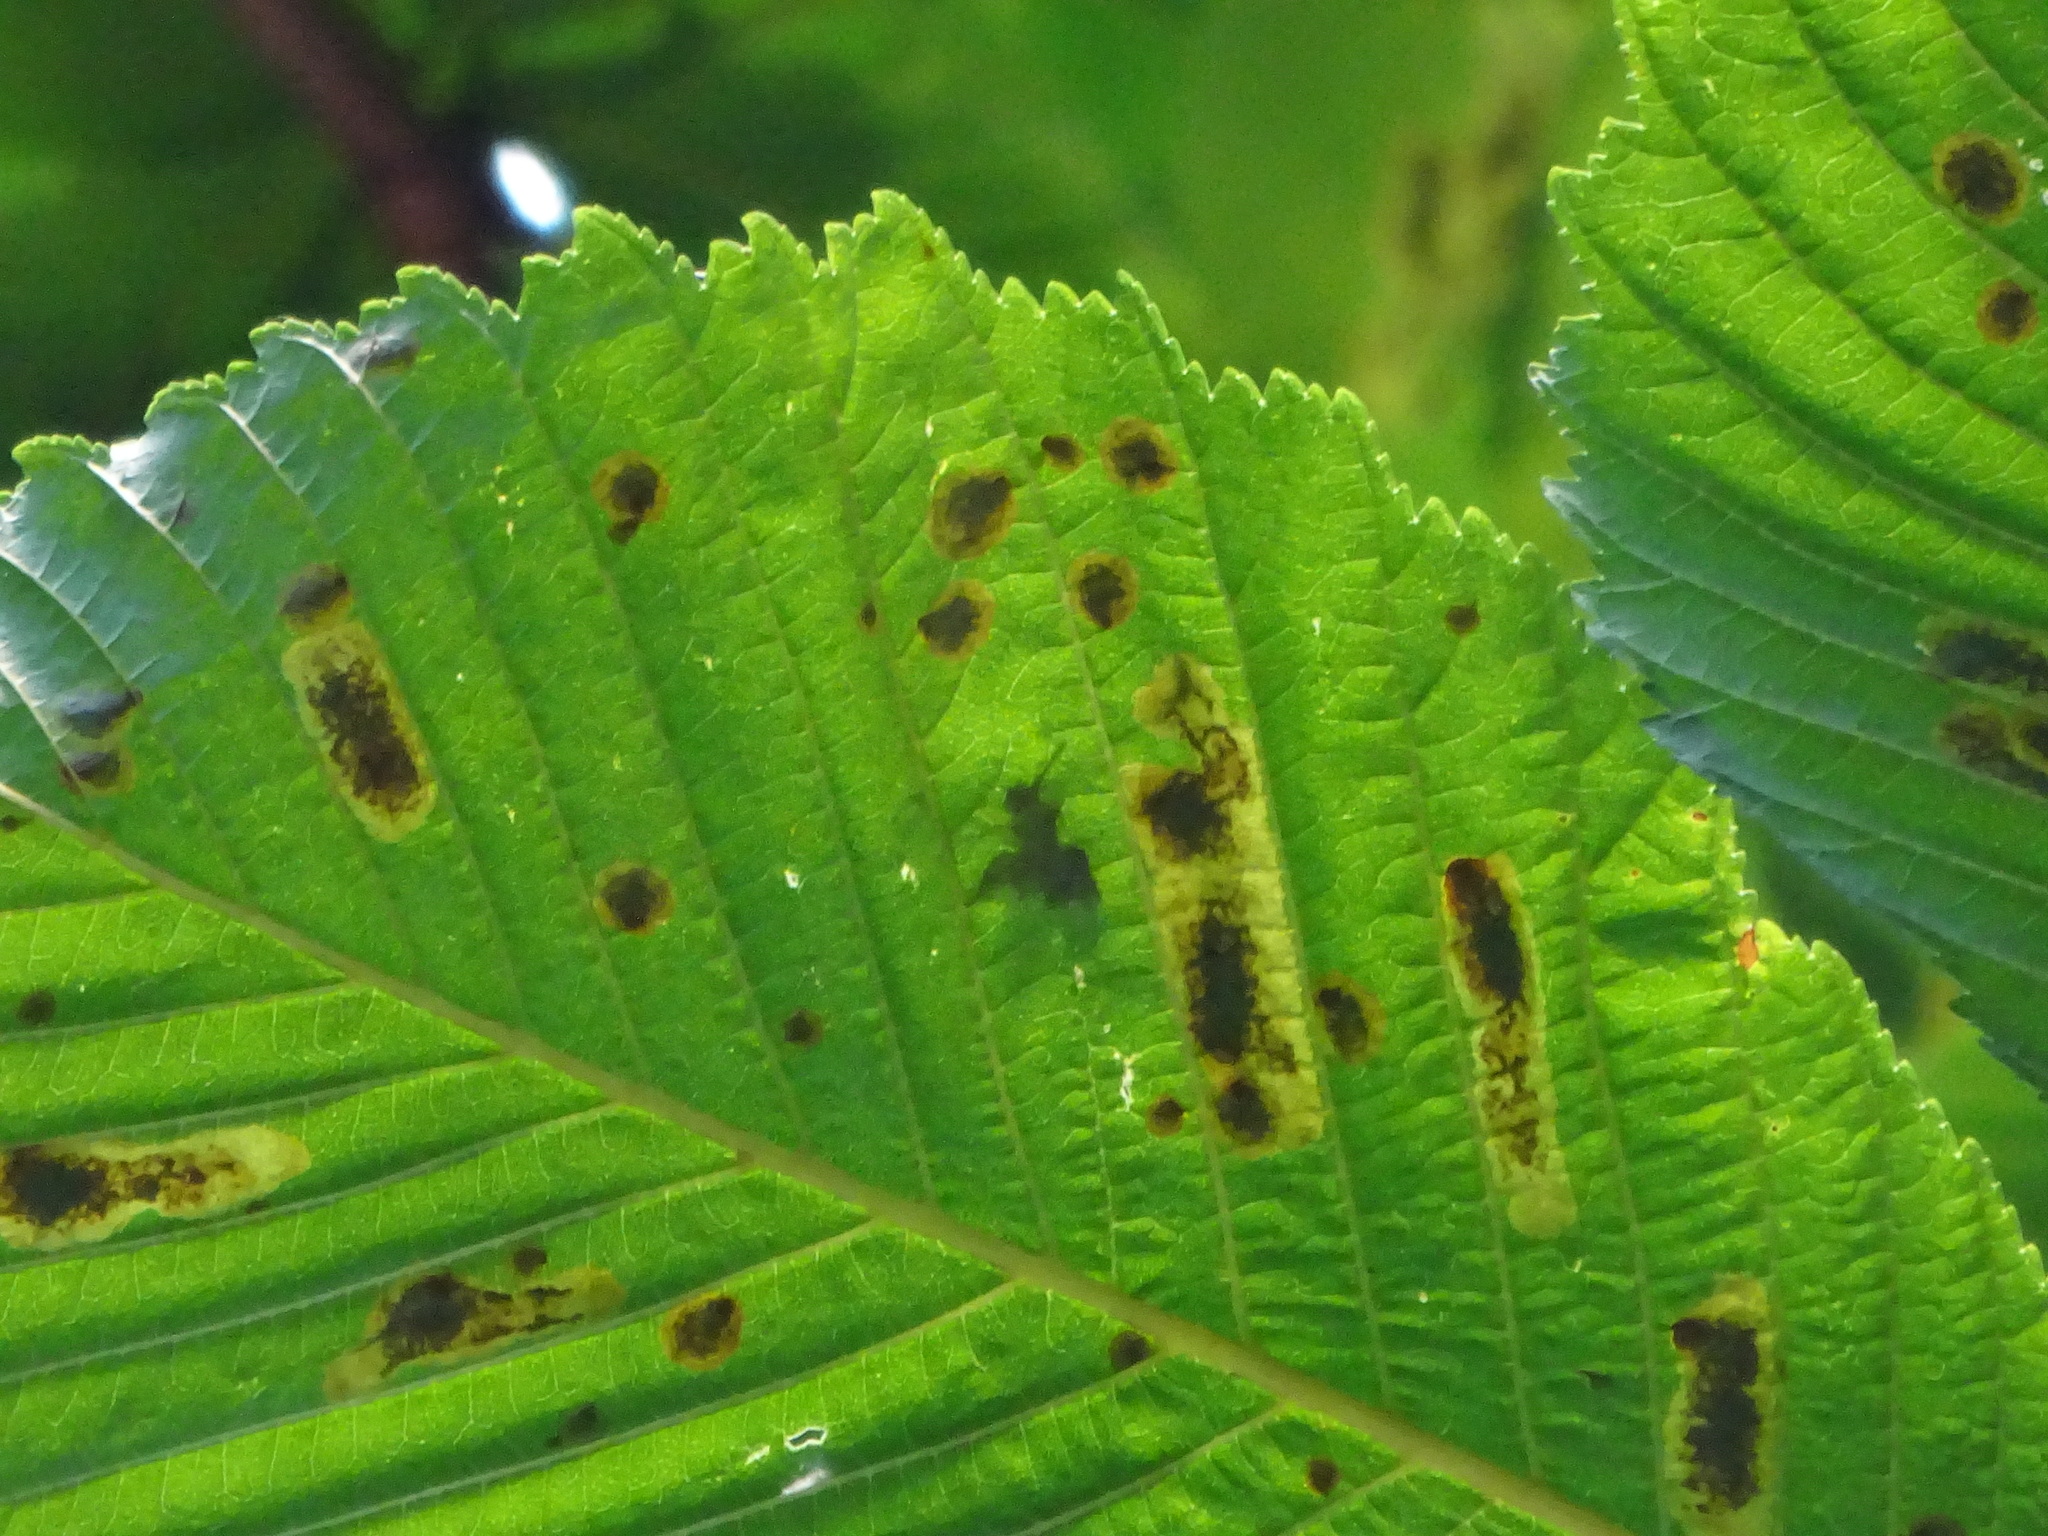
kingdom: Animalia
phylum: Arthropoda
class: Insecta
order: Lepidoptera
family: Gracillariidae
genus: Cameraria
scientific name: Cameraria ohridella
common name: Horse-chestnut leaf-miner
